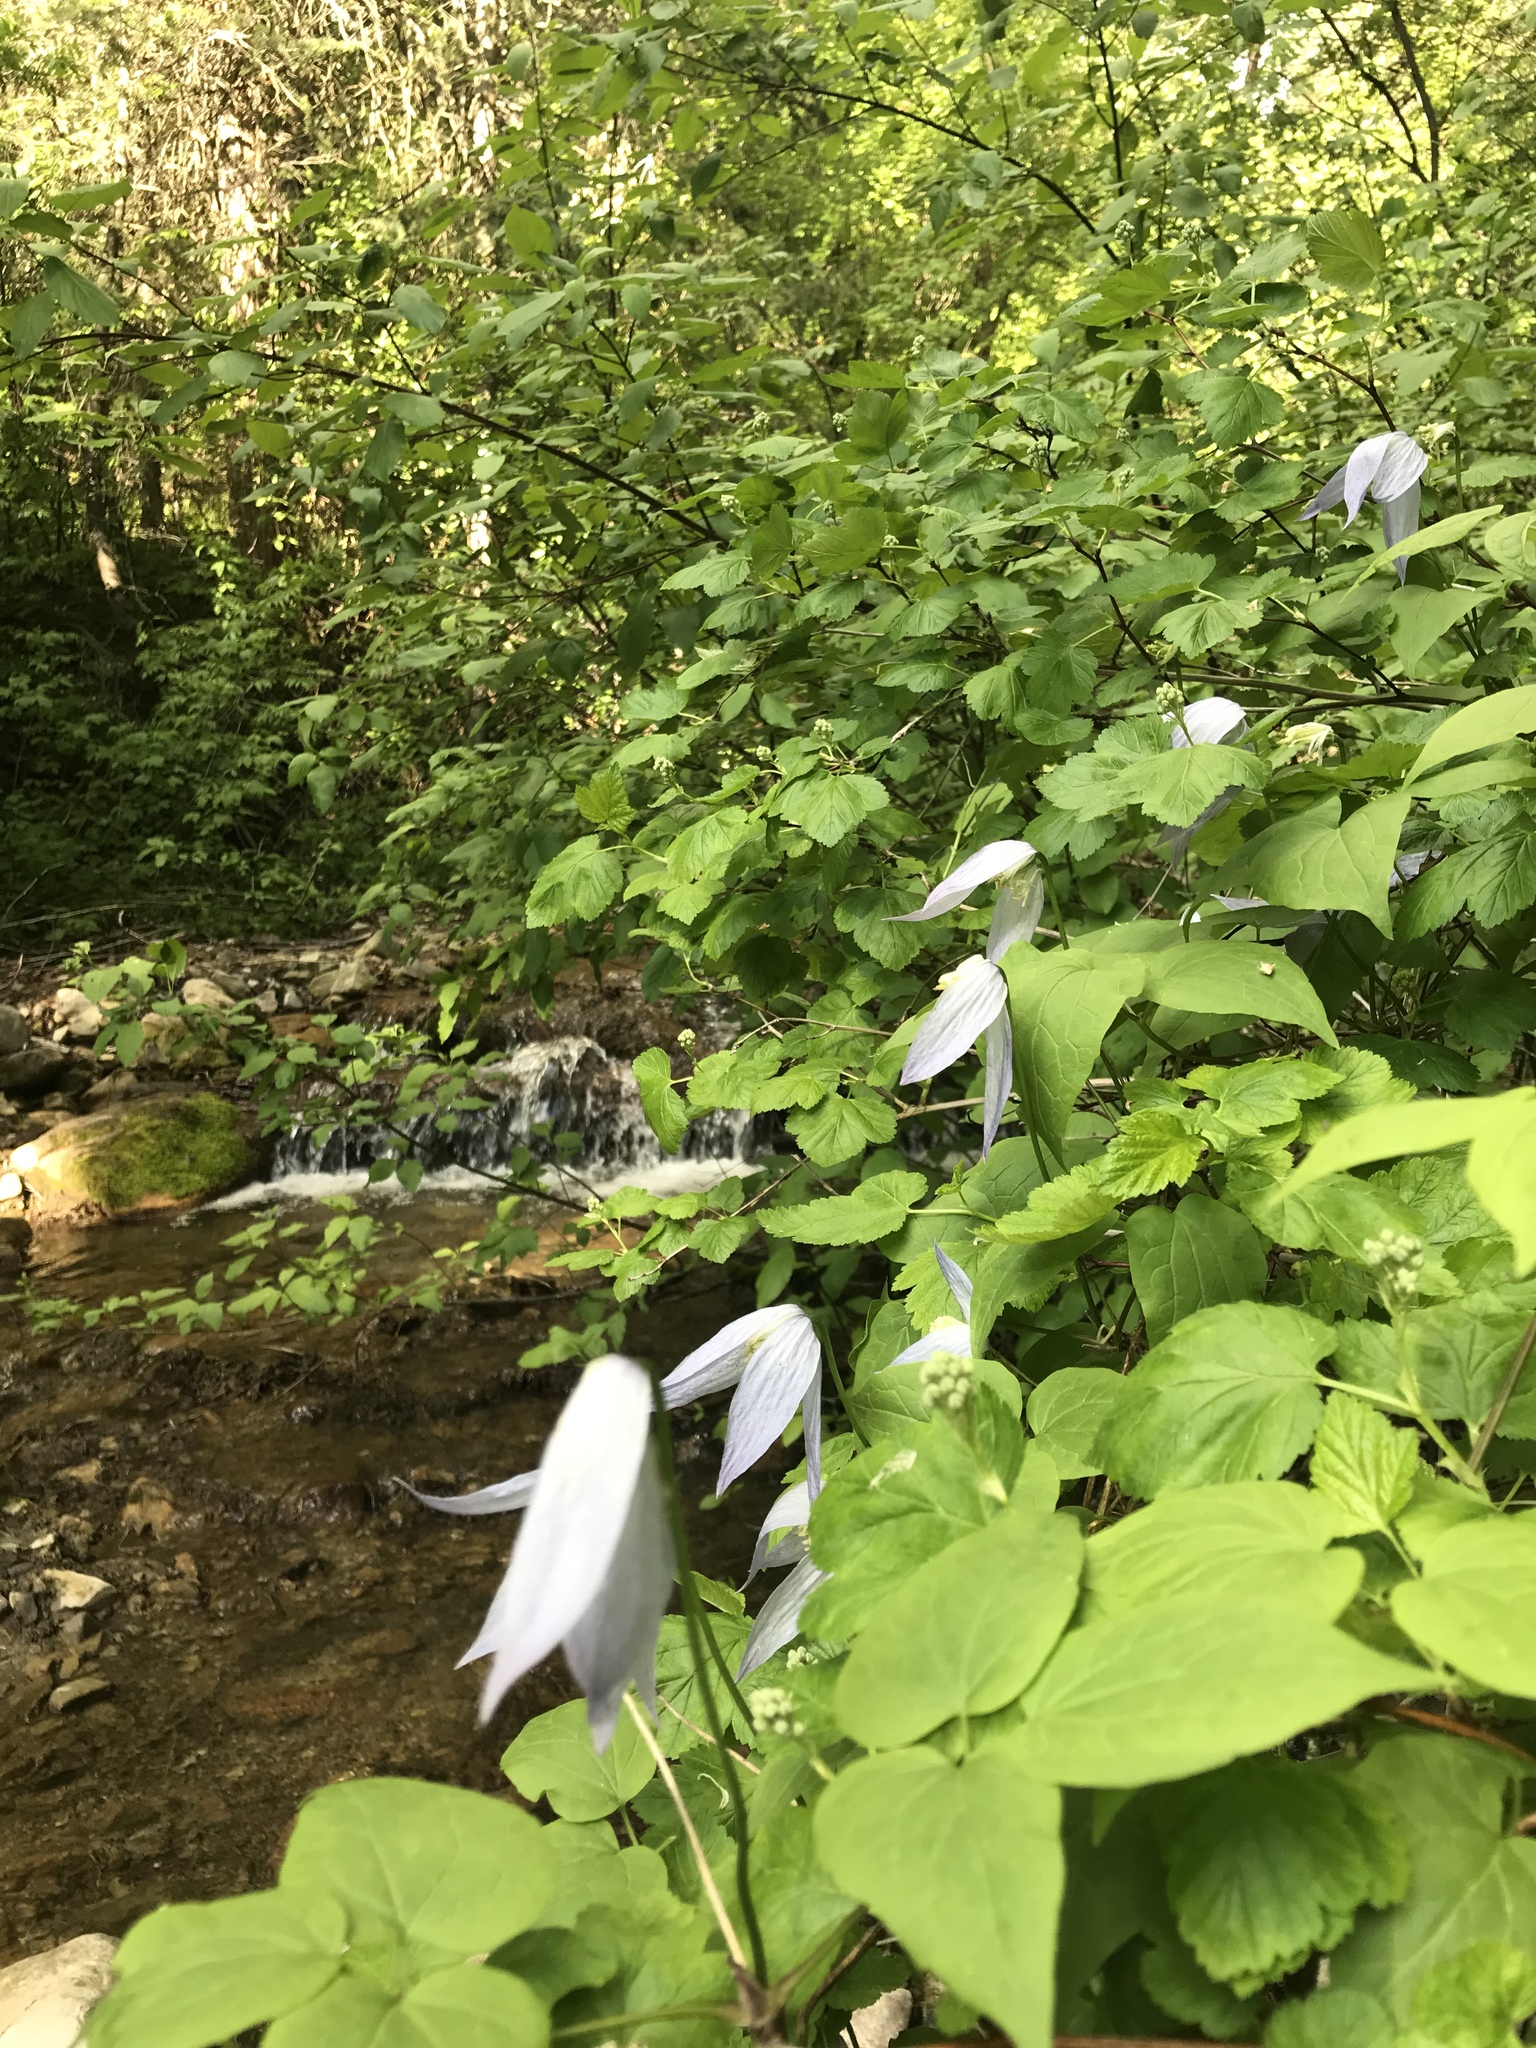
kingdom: Plantae
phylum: Tracheophyta
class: Magnoliopsida
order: Ranunculales
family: Ranunculaceae
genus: Clematis
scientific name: Clematis occidentalis
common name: Purple clematis
